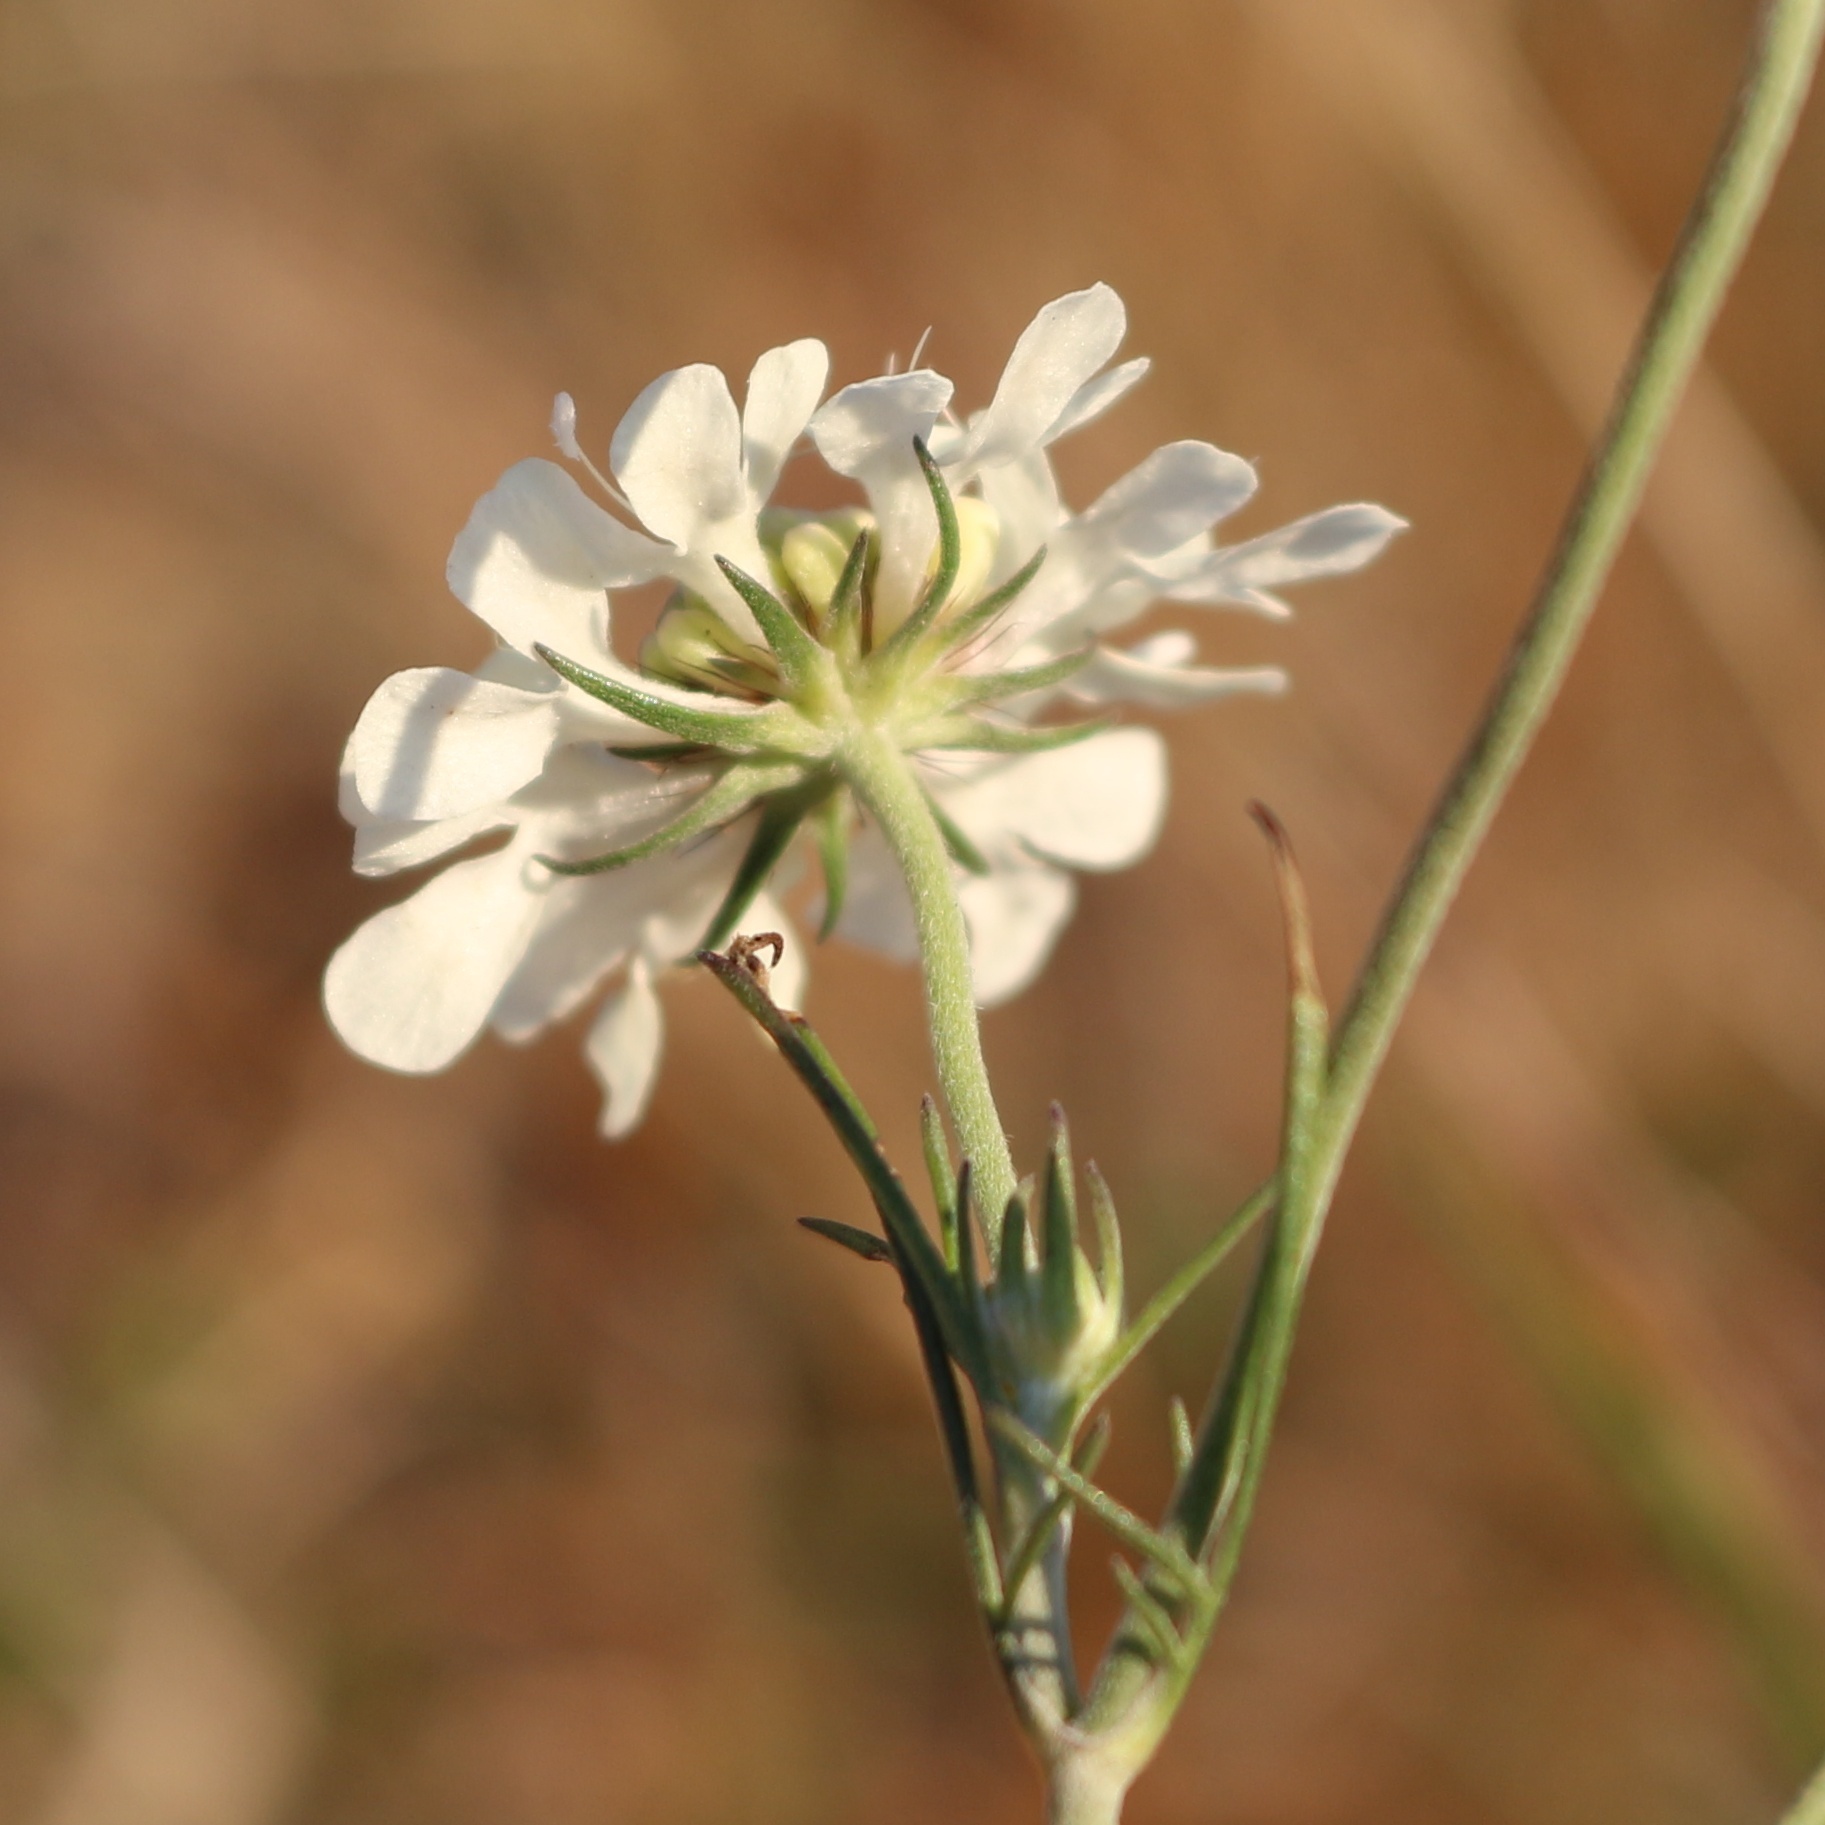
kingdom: Plantae
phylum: Tracheophyta
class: Magnoliopsida
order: Dipsacales
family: Caprifoliaceae
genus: Scabiosa
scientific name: Scabiosa bipinnata
